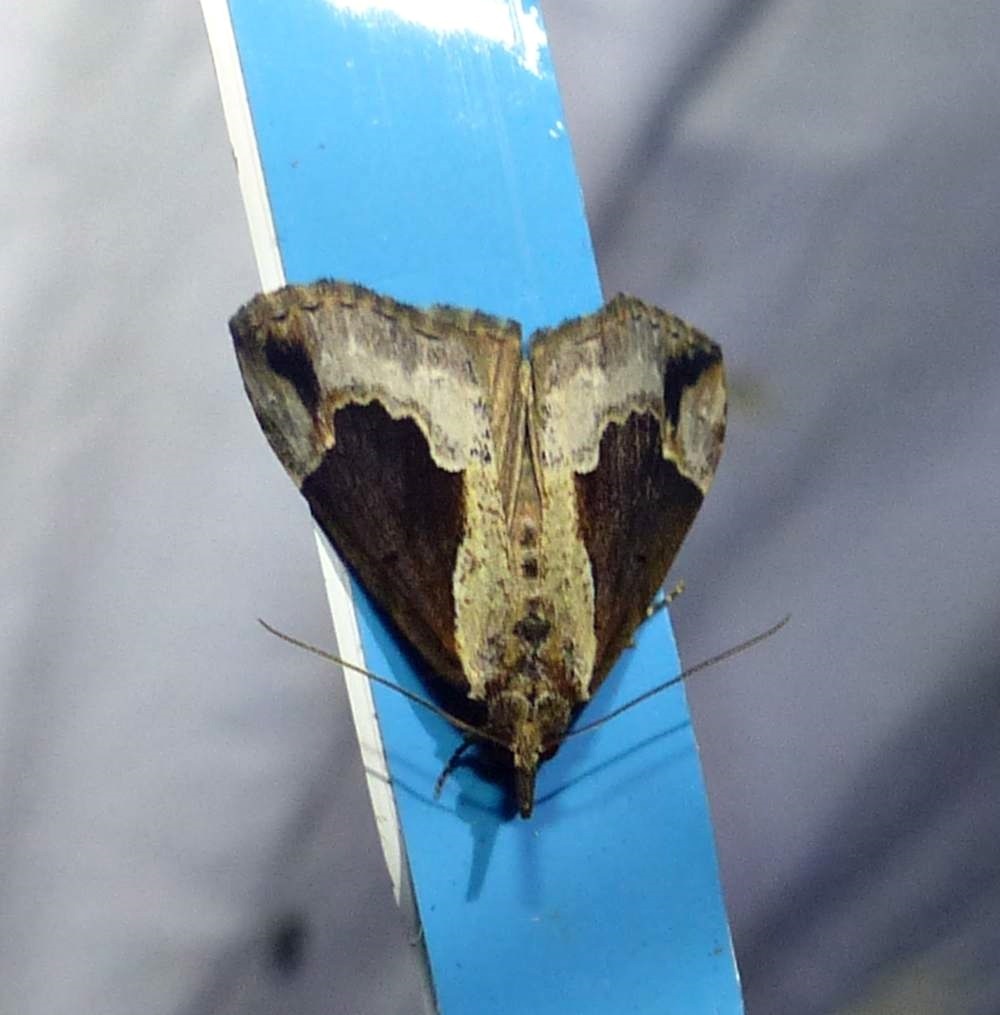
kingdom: Animalia
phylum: Arthropoda
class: Insecta
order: Lepidoptera
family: Erebidae
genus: Hypena
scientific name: Hypena baltimoralis
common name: Baltimore snout
